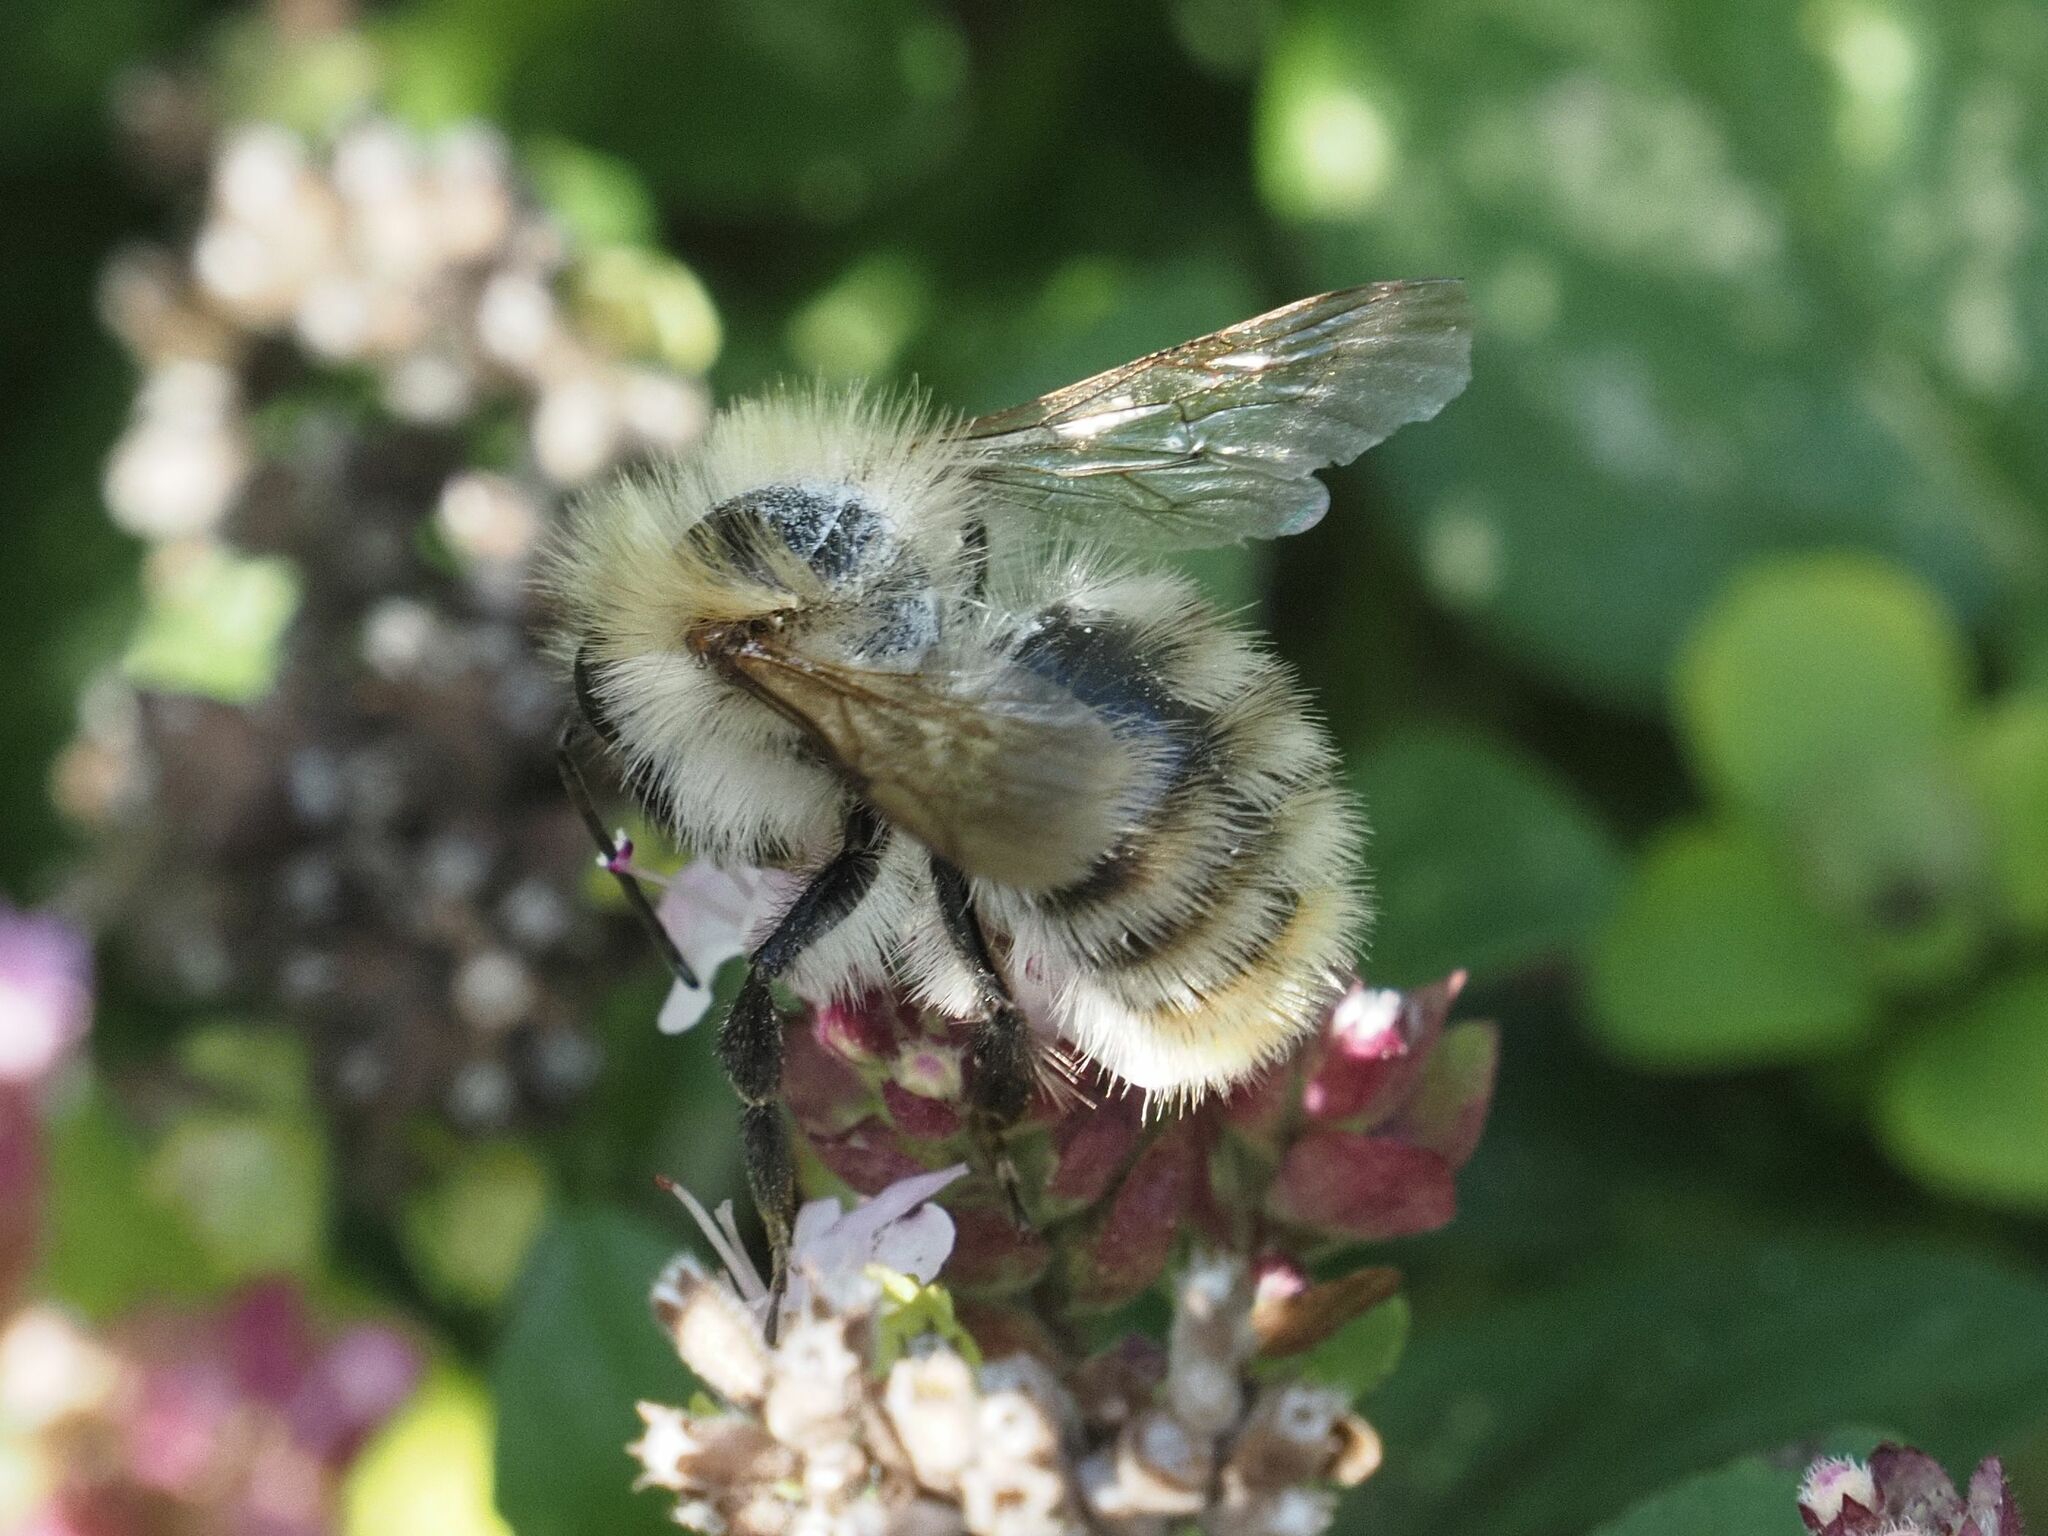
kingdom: Animalia
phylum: Arthropoda
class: Insecta
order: Hymenoptera
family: Apidae
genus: Bombus
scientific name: Bombus pascuorum
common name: Common carder bee
